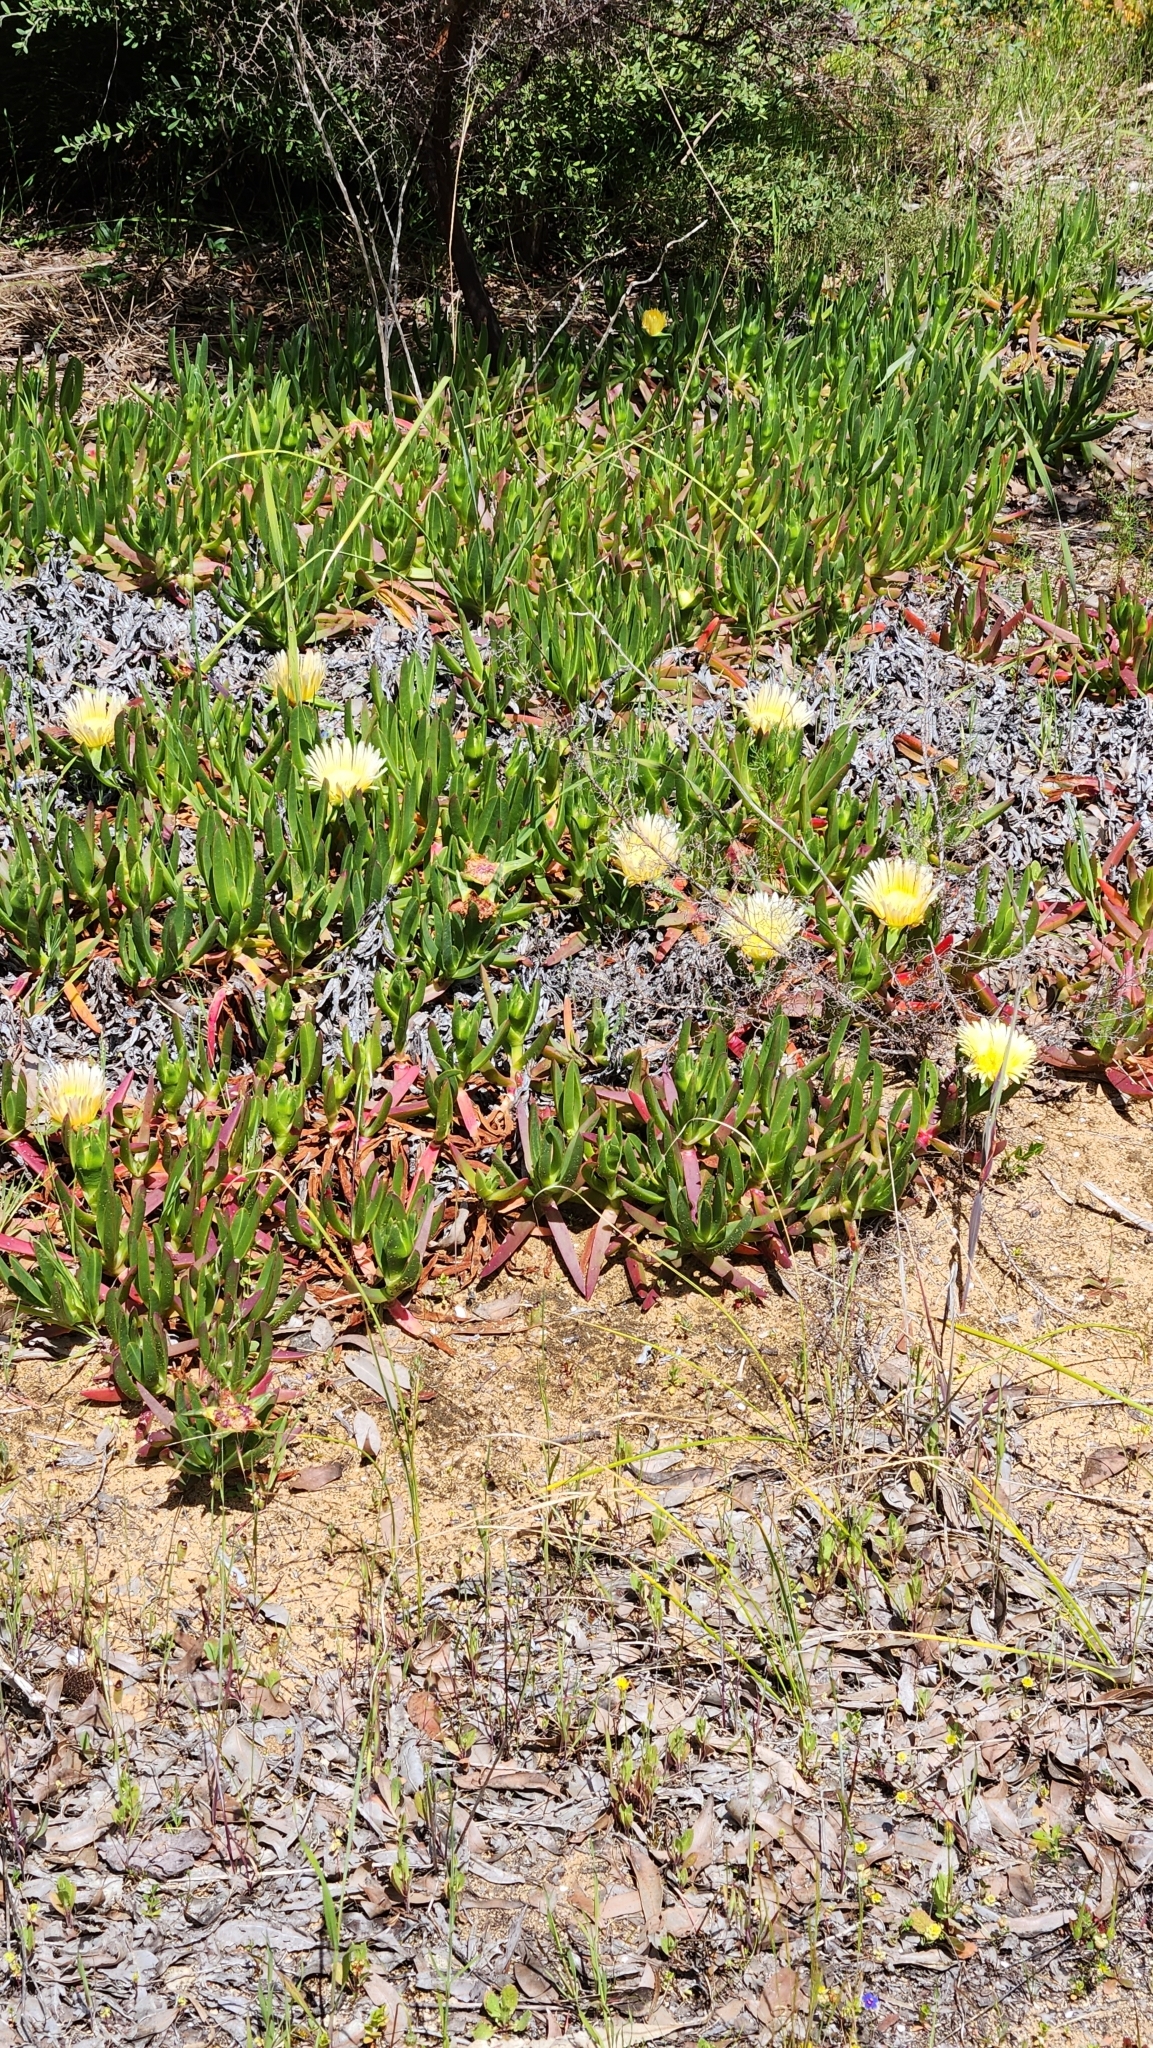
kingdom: Plantae
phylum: Tracheophyta
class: Magnoliopsida
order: Caryophyllales
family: Aizoaceae
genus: Carpobrotus
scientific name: Carpobrotus edulis
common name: Hottentot-fig
